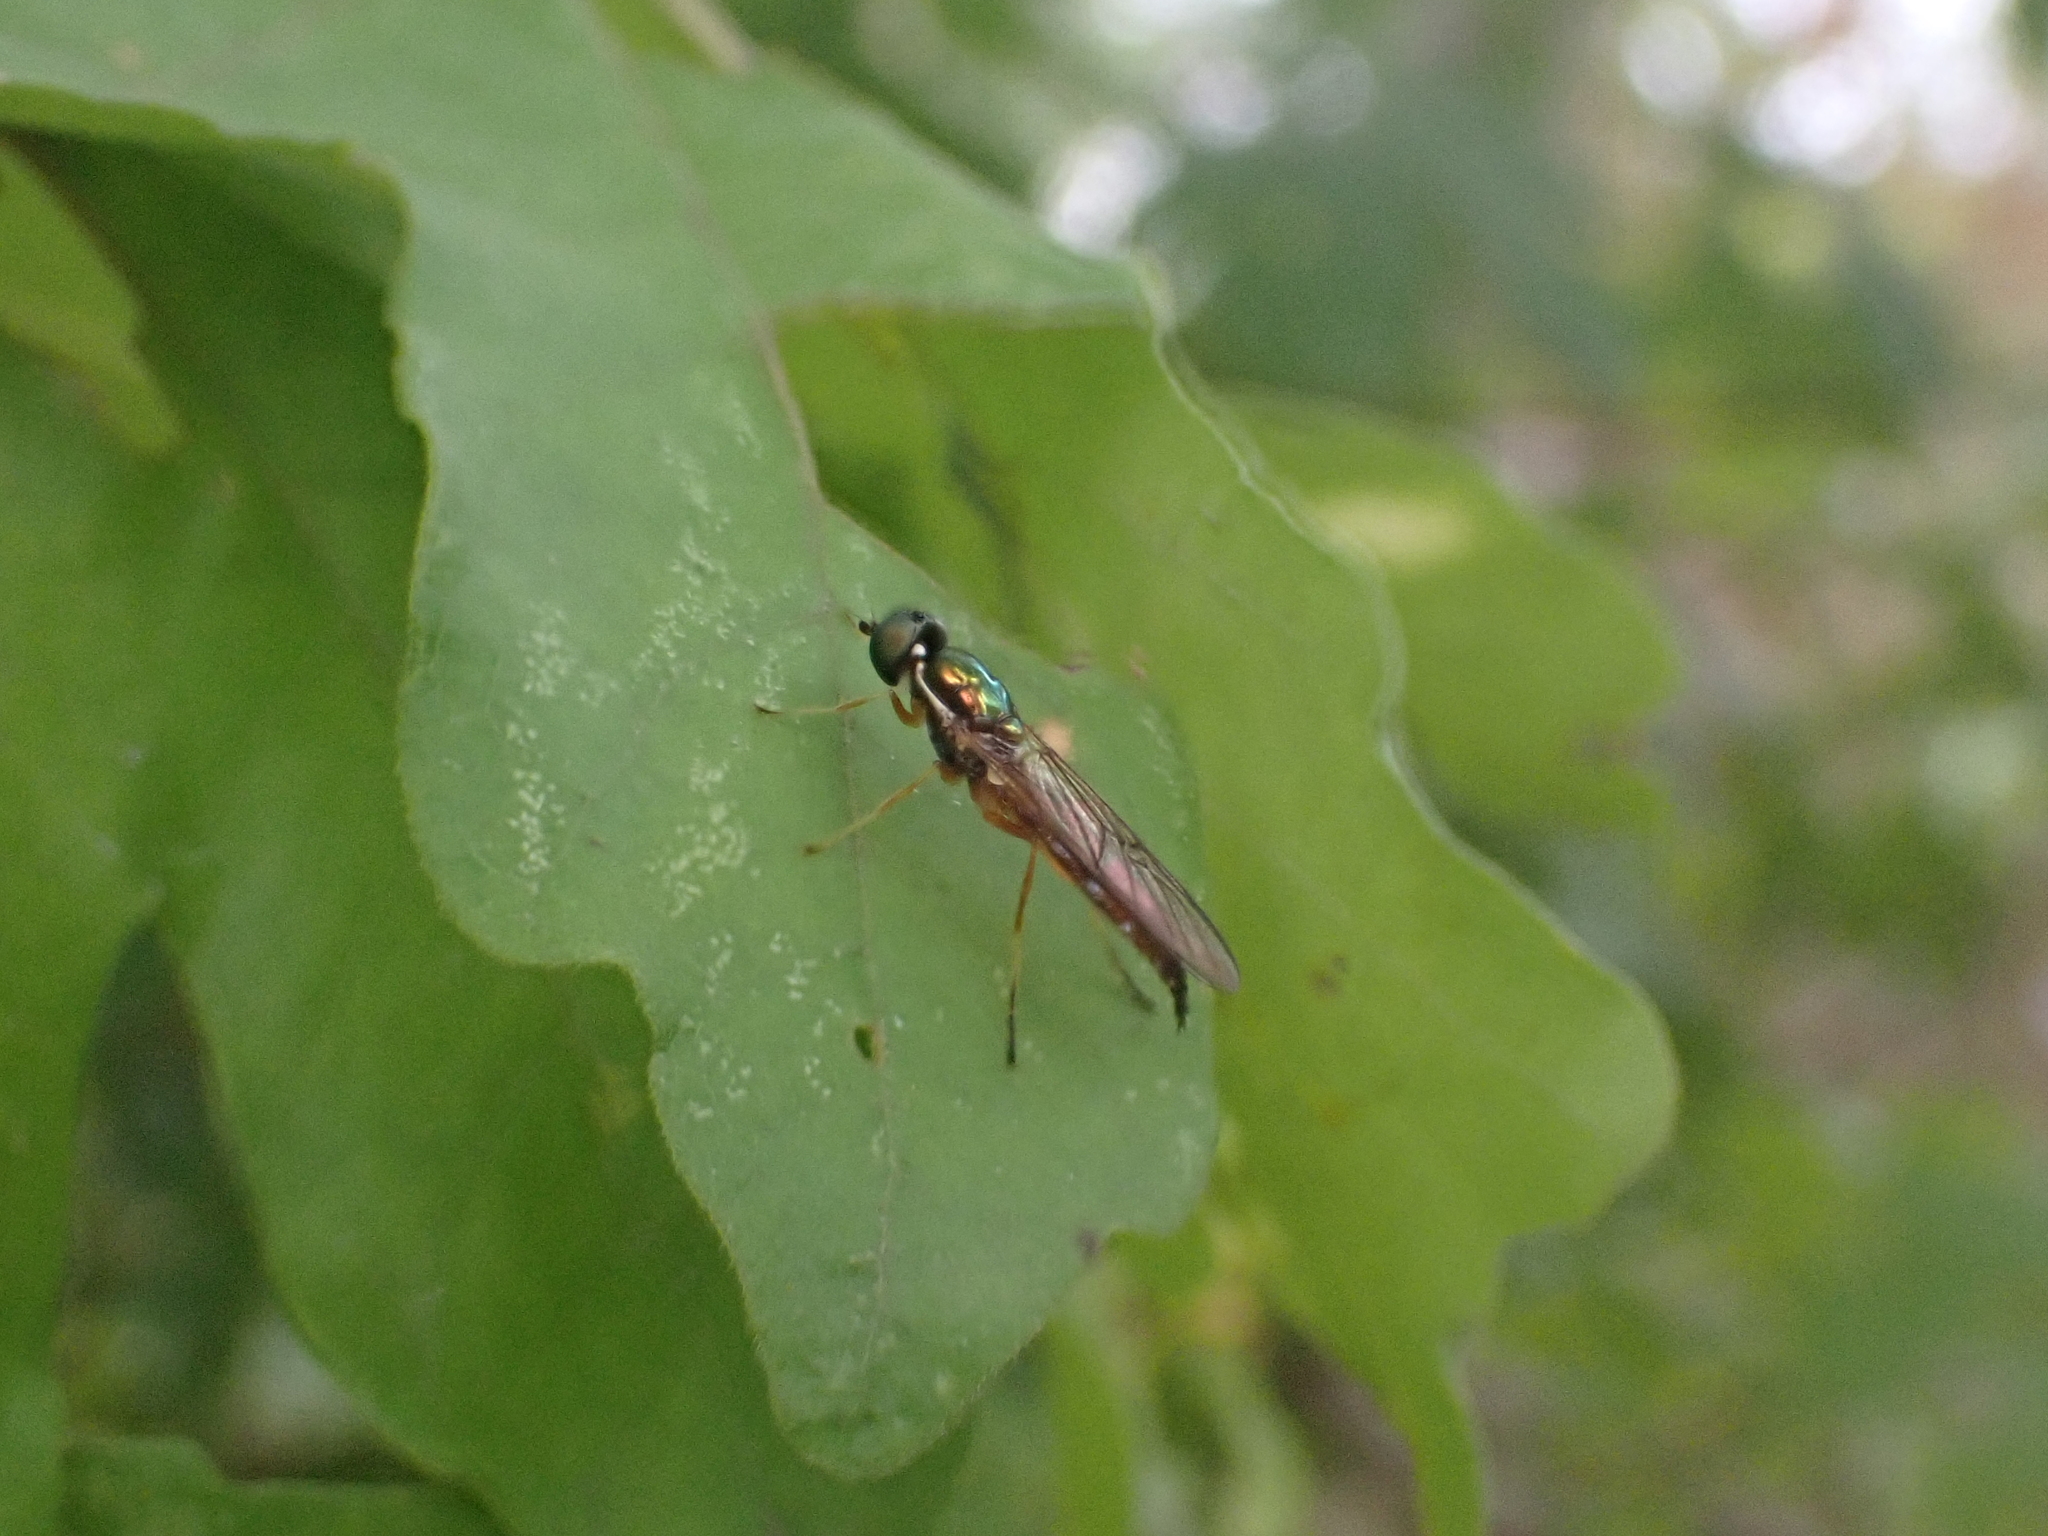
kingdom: Animalia
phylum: Arthropoda
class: Insecta
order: Diptera
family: Stratiomyidae
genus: Sargus
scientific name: Sargus bipunctatus
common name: Twin-spot centurion
